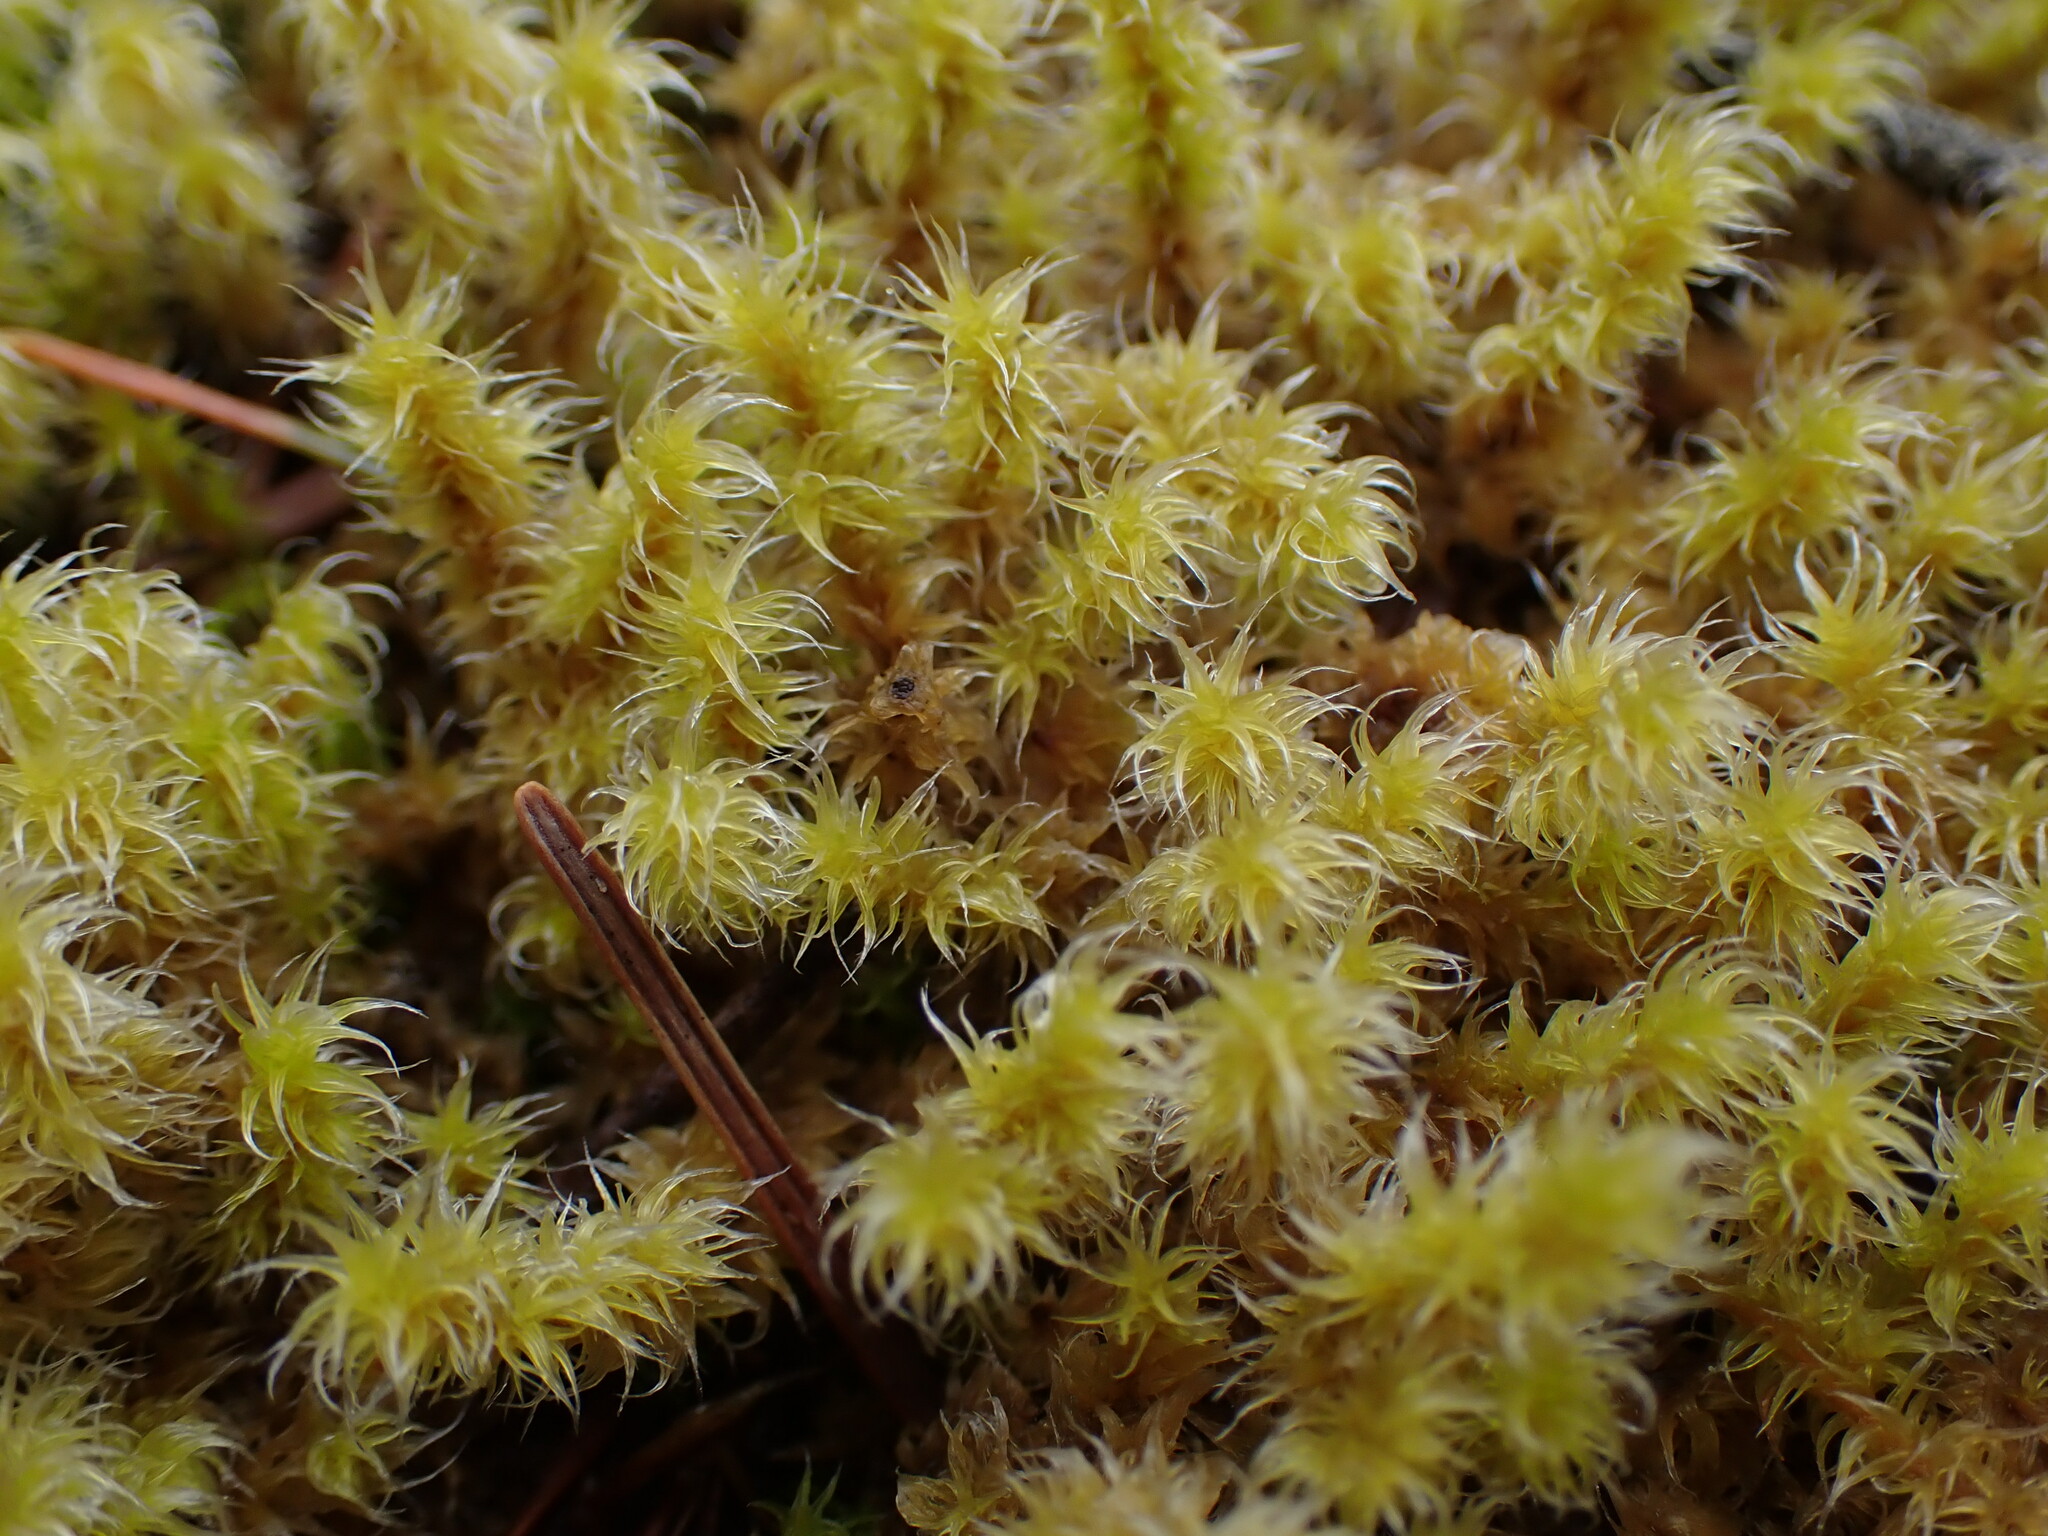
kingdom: Plantae
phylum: Bryophyta
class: Bryopsida
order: Grimmiales
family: Grimmiaceae
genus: Niphotrichum
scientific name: Niphotrichum elongatum
